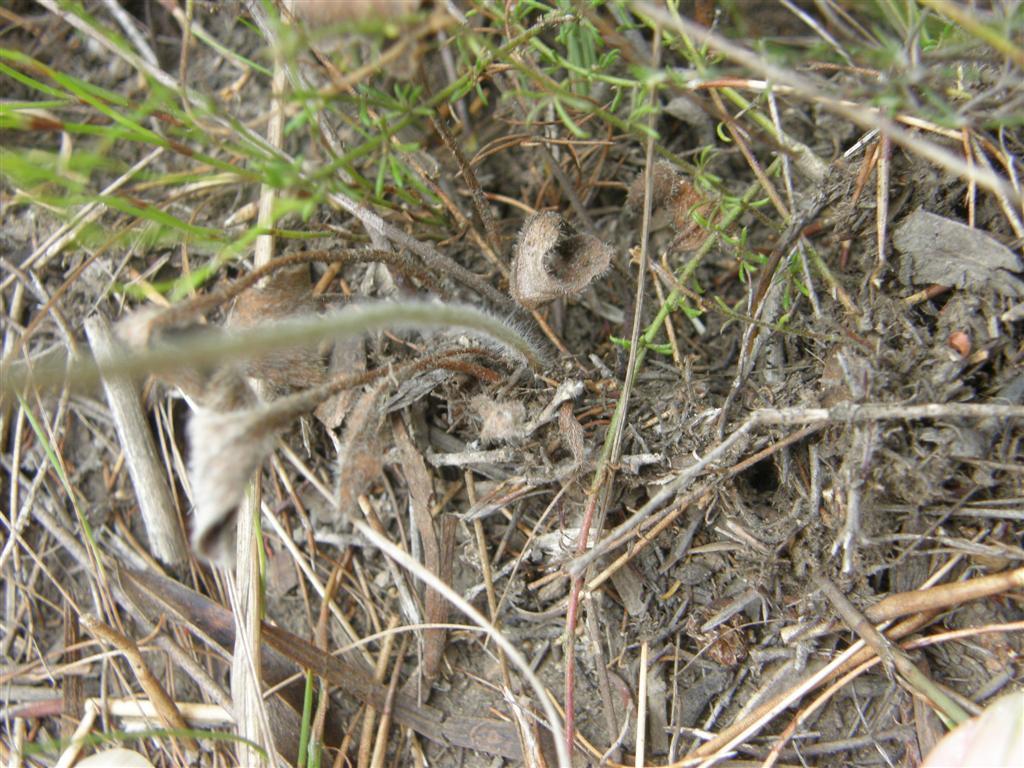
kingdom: Plantae
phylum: Tracheophyta
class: Magnoliopsida
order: Geraniales
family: Geraniaceae
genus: Pelargonium
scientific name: Pelargonium caledonicum
